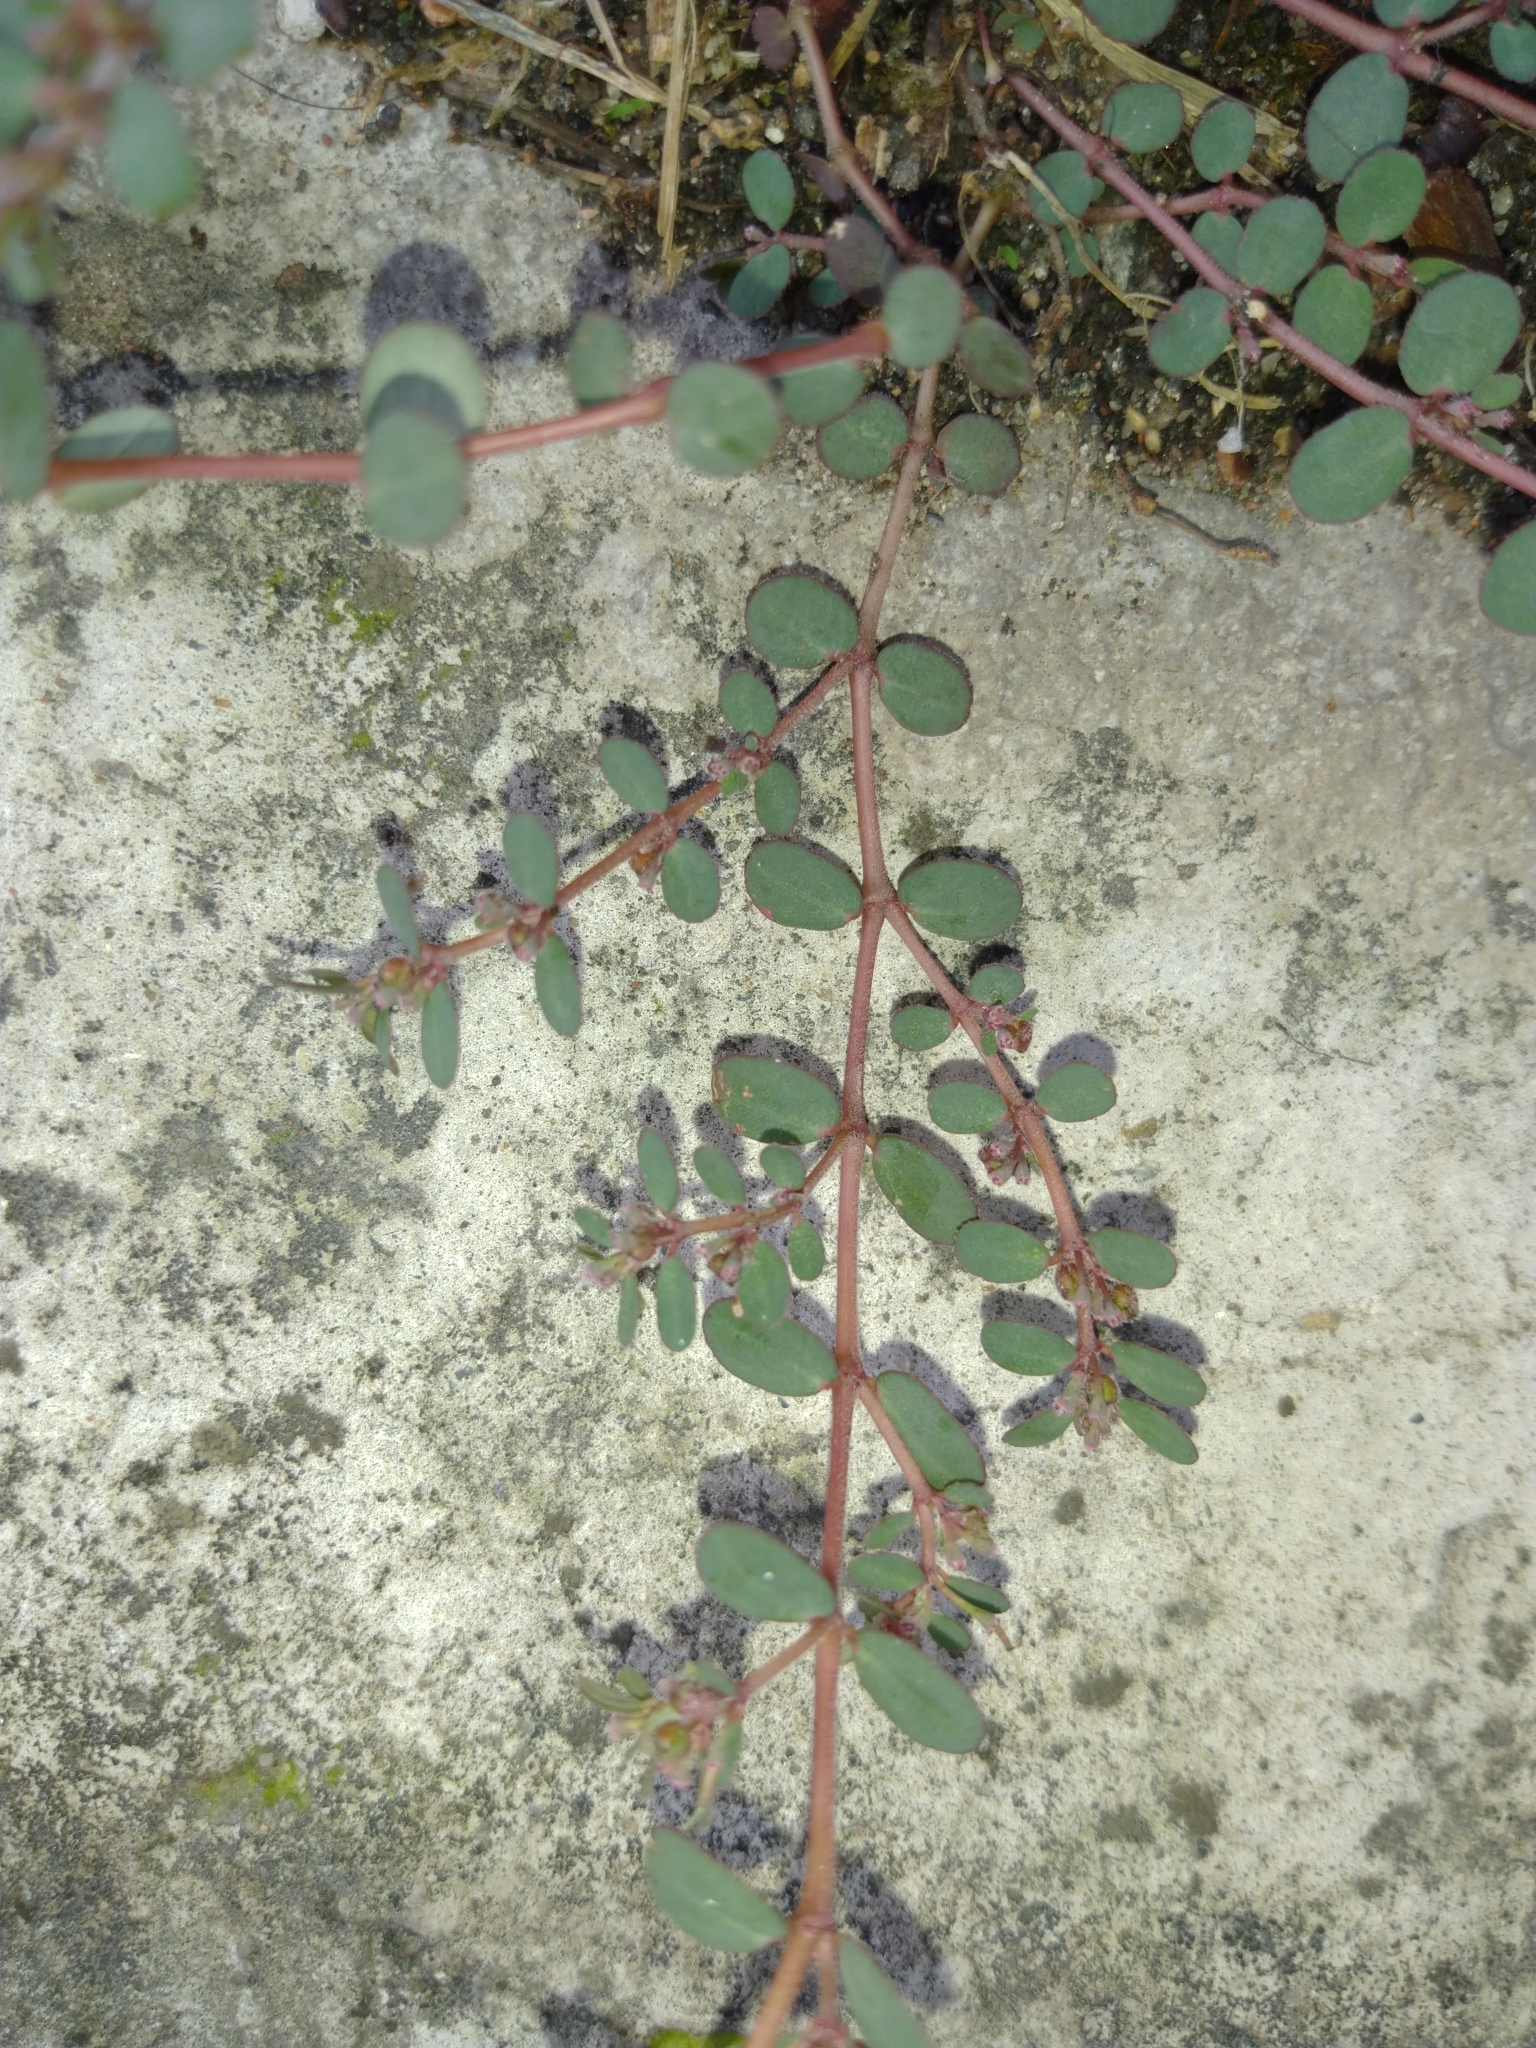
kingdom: Plantae
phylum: Tracheophyta
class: Magnoliopsida
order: Malpighiales
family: Euphorbiaceae
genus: Euphorbia
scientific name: Euphorbia prostrata
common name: Prostrate sandmat
